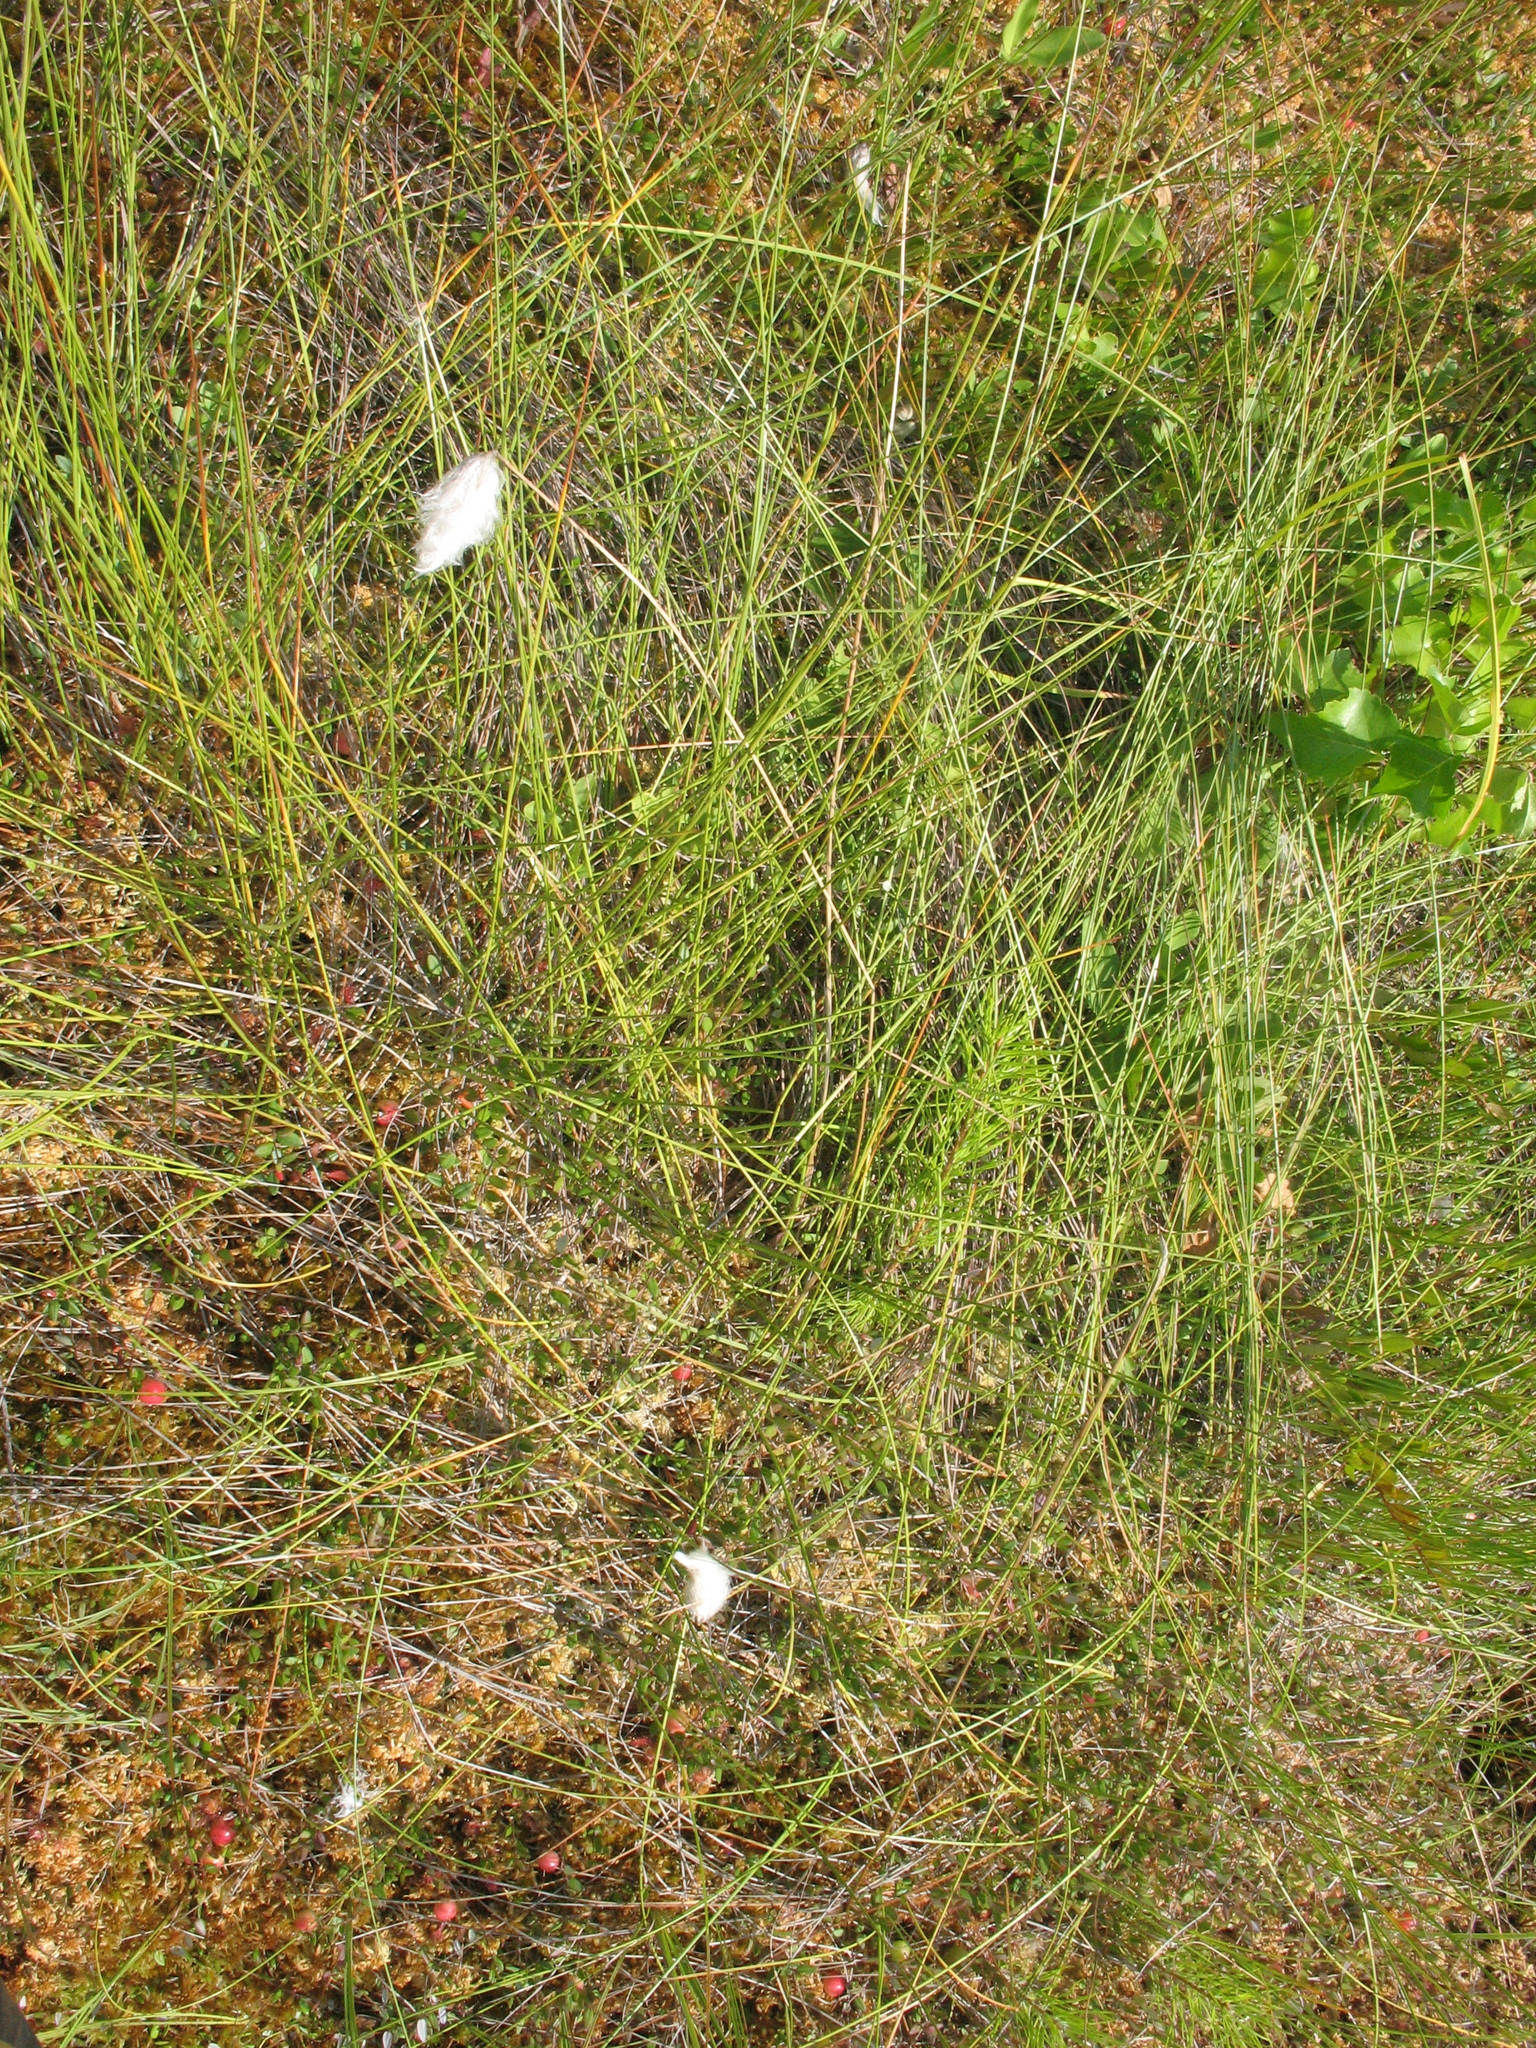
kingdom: Plantae
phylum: Tracheophyta
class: Liliopsida
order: Poales
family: Cyperaceae
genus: Eriophorum
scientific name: Eriophorum vaginatum
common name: Hare's-tail cottongrass
